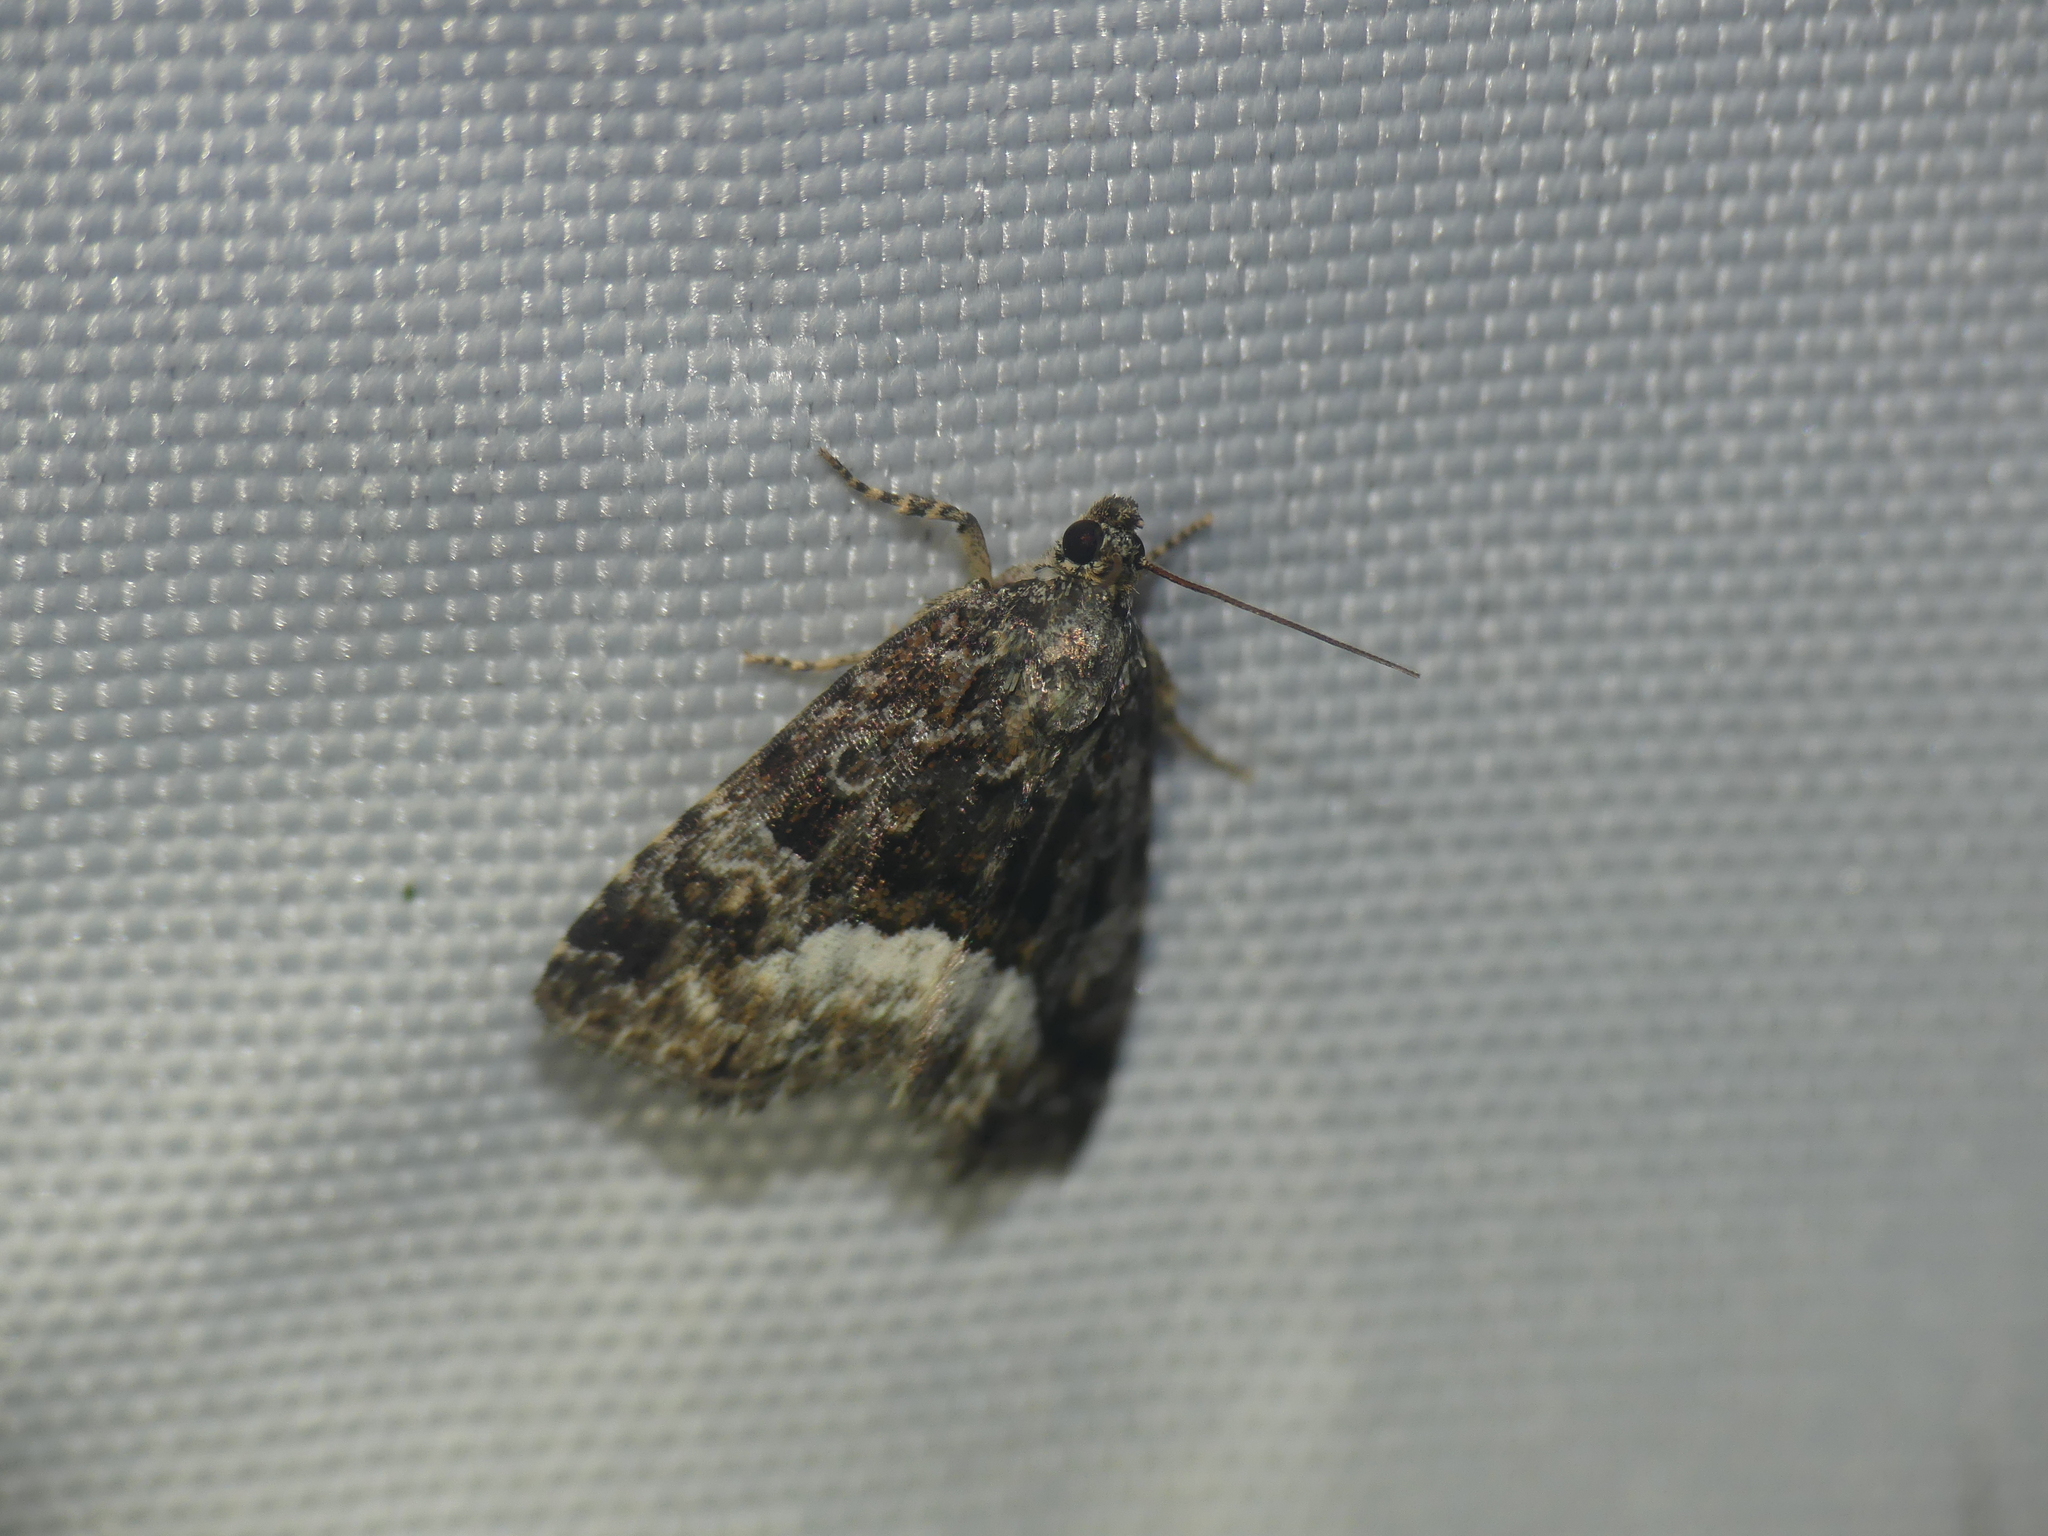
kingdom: Animalia
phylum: Arthropoda
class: Insecta
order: Lepidoptera
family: Noctuidae
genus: Deltote
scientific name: Deltote pygarga
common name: Marbled white spot
